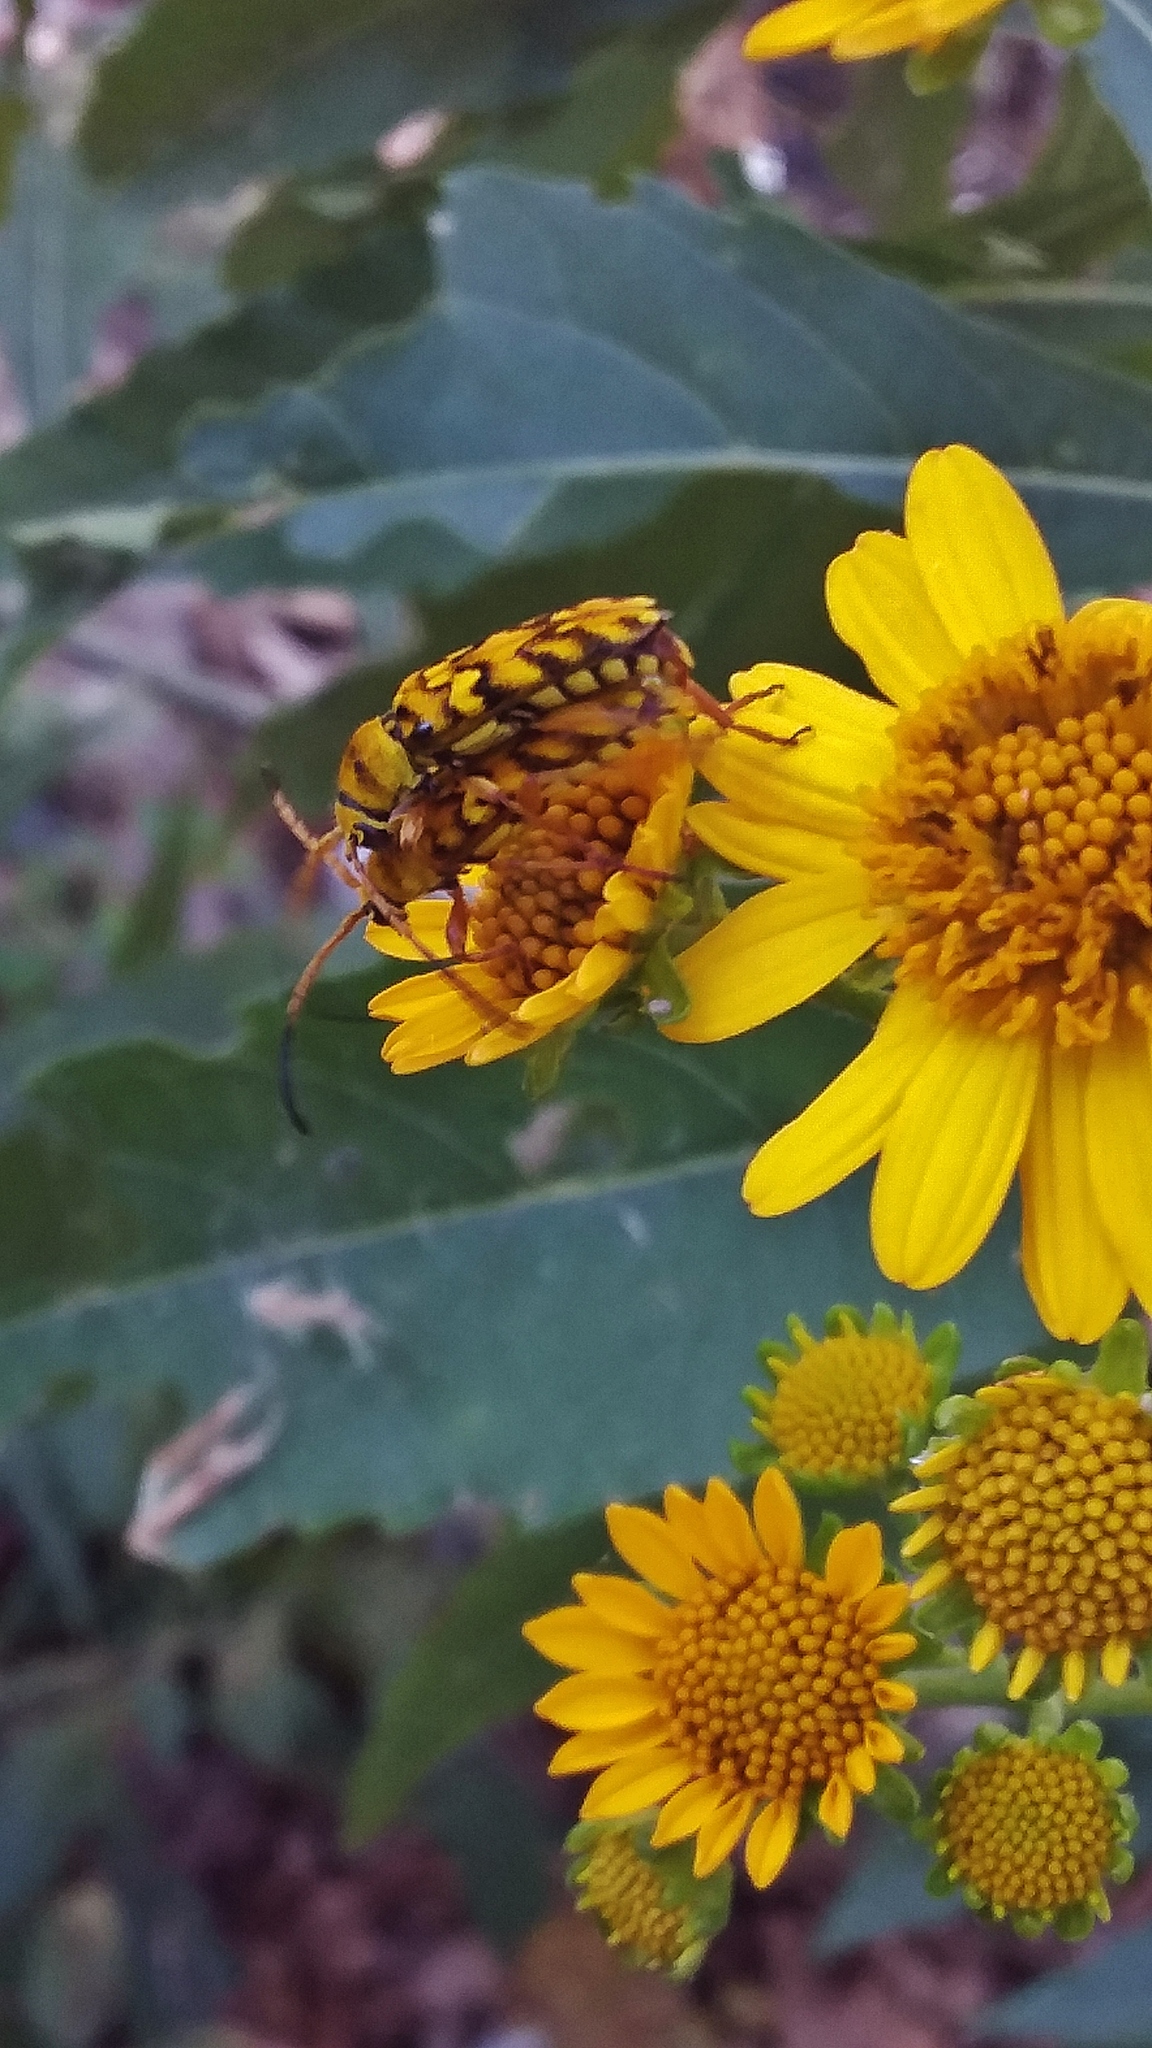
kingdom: Animalia
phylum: Arthropoda
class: Insecta
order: Coleoptera
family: Cerambycidae
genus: Ochraethes
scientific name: Ochraethes pollinosus
